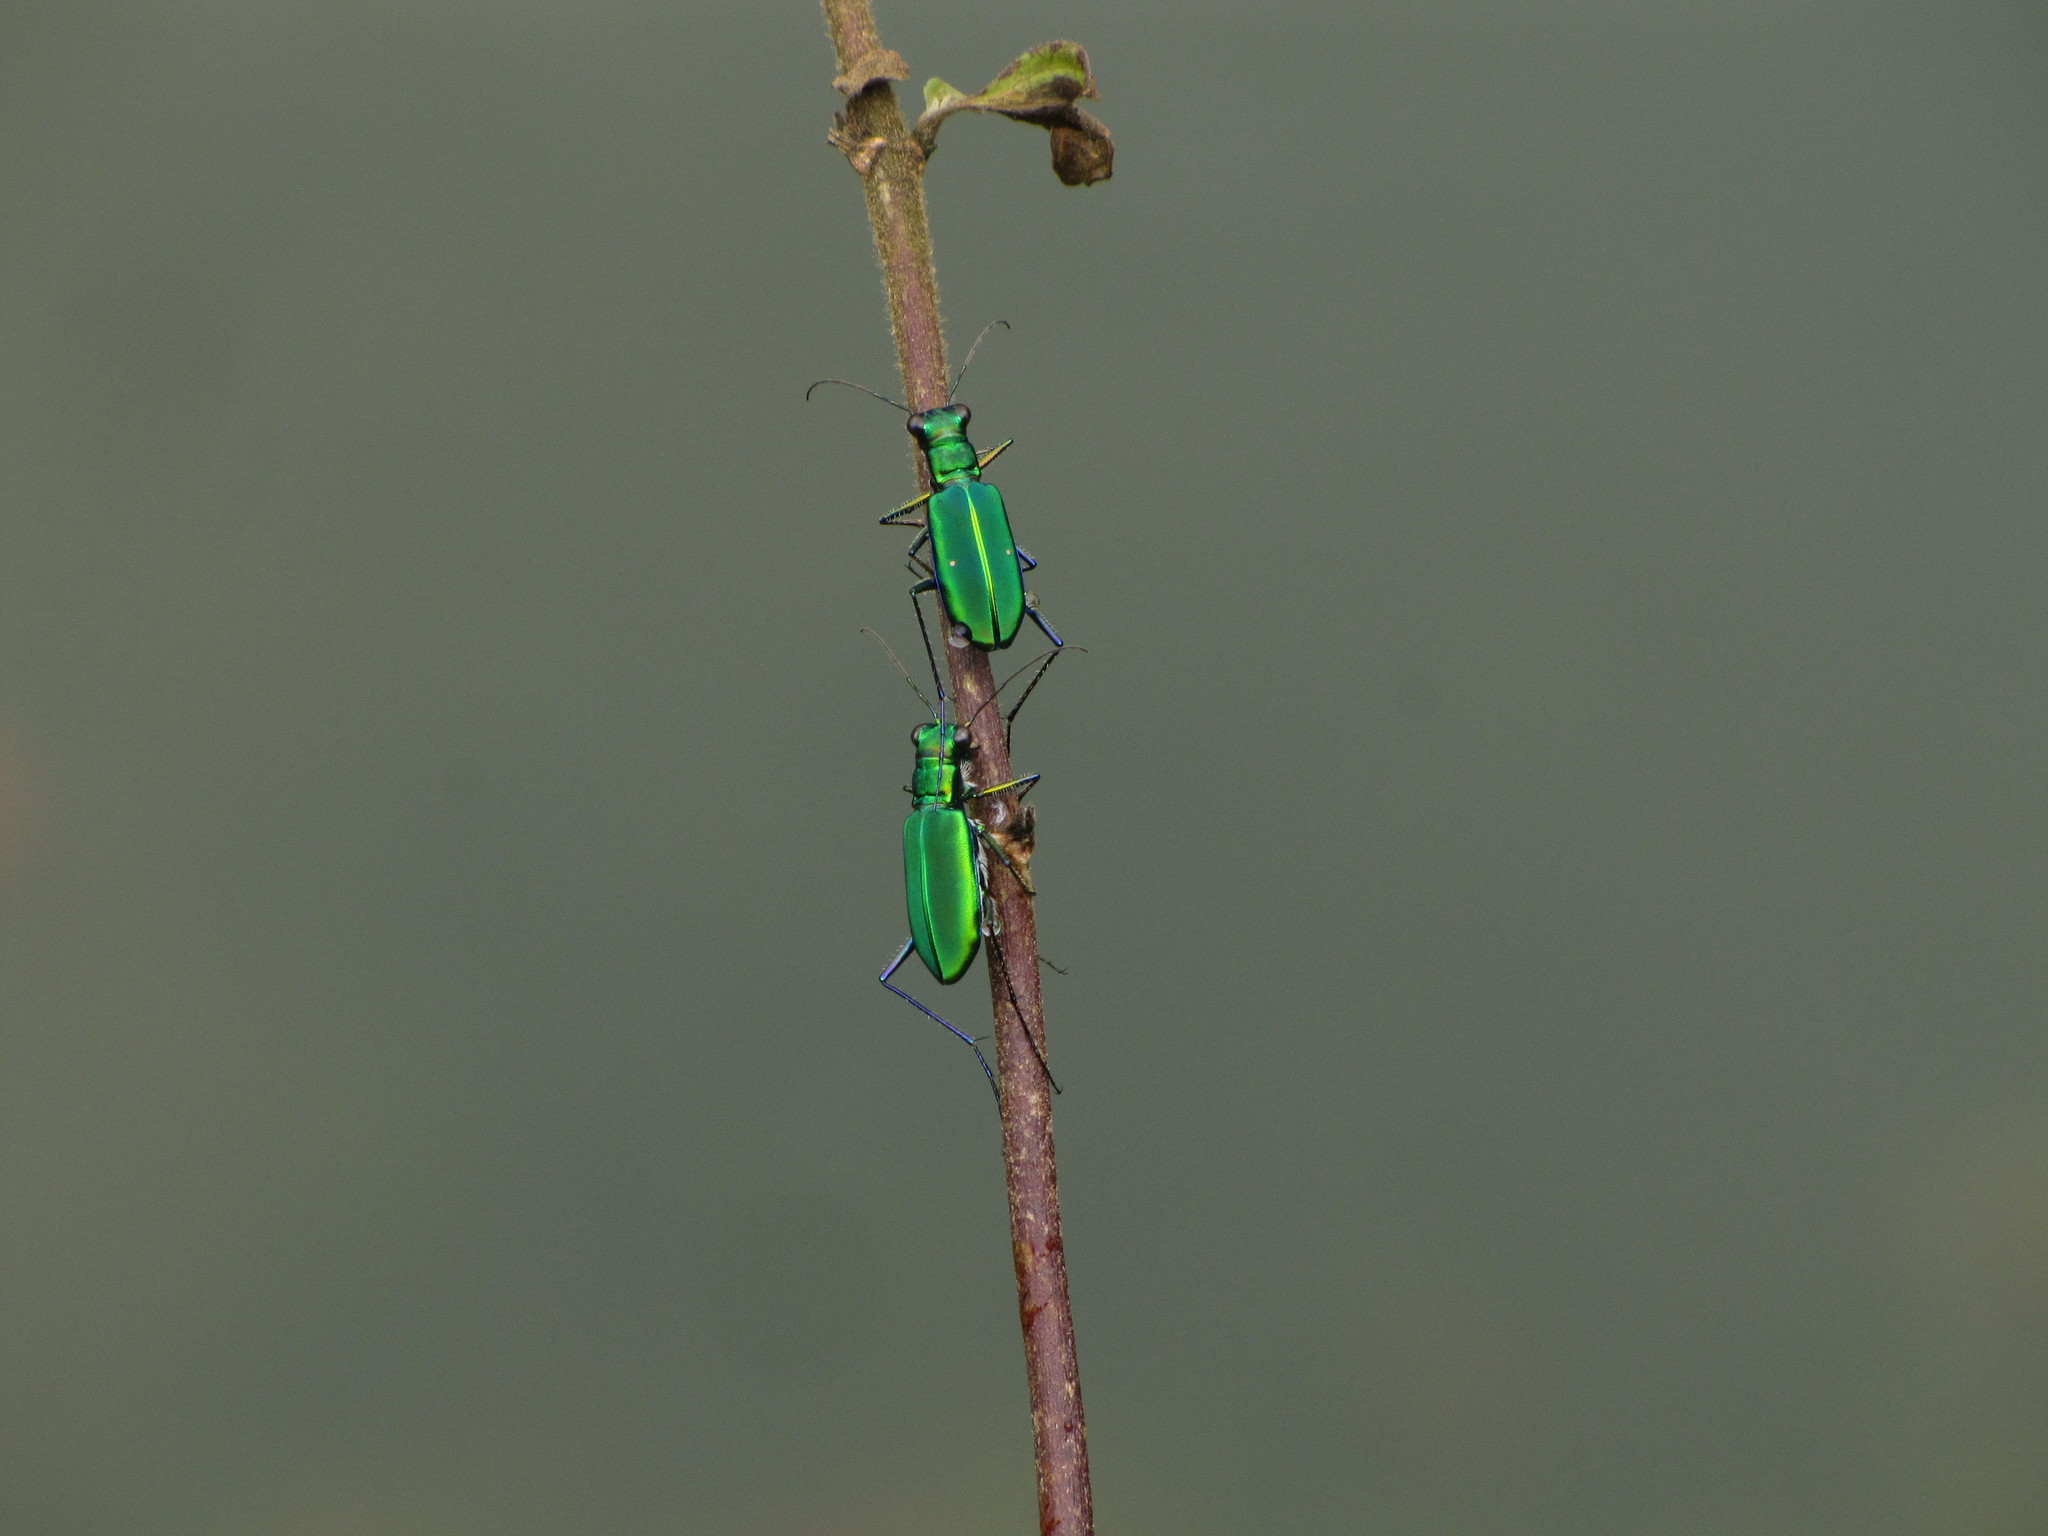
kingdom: Animalia
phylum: Arthropoda
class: Insecta
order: Coleoptera
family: Carabidae
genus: Cicindela
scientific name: Cicindela whithillii
